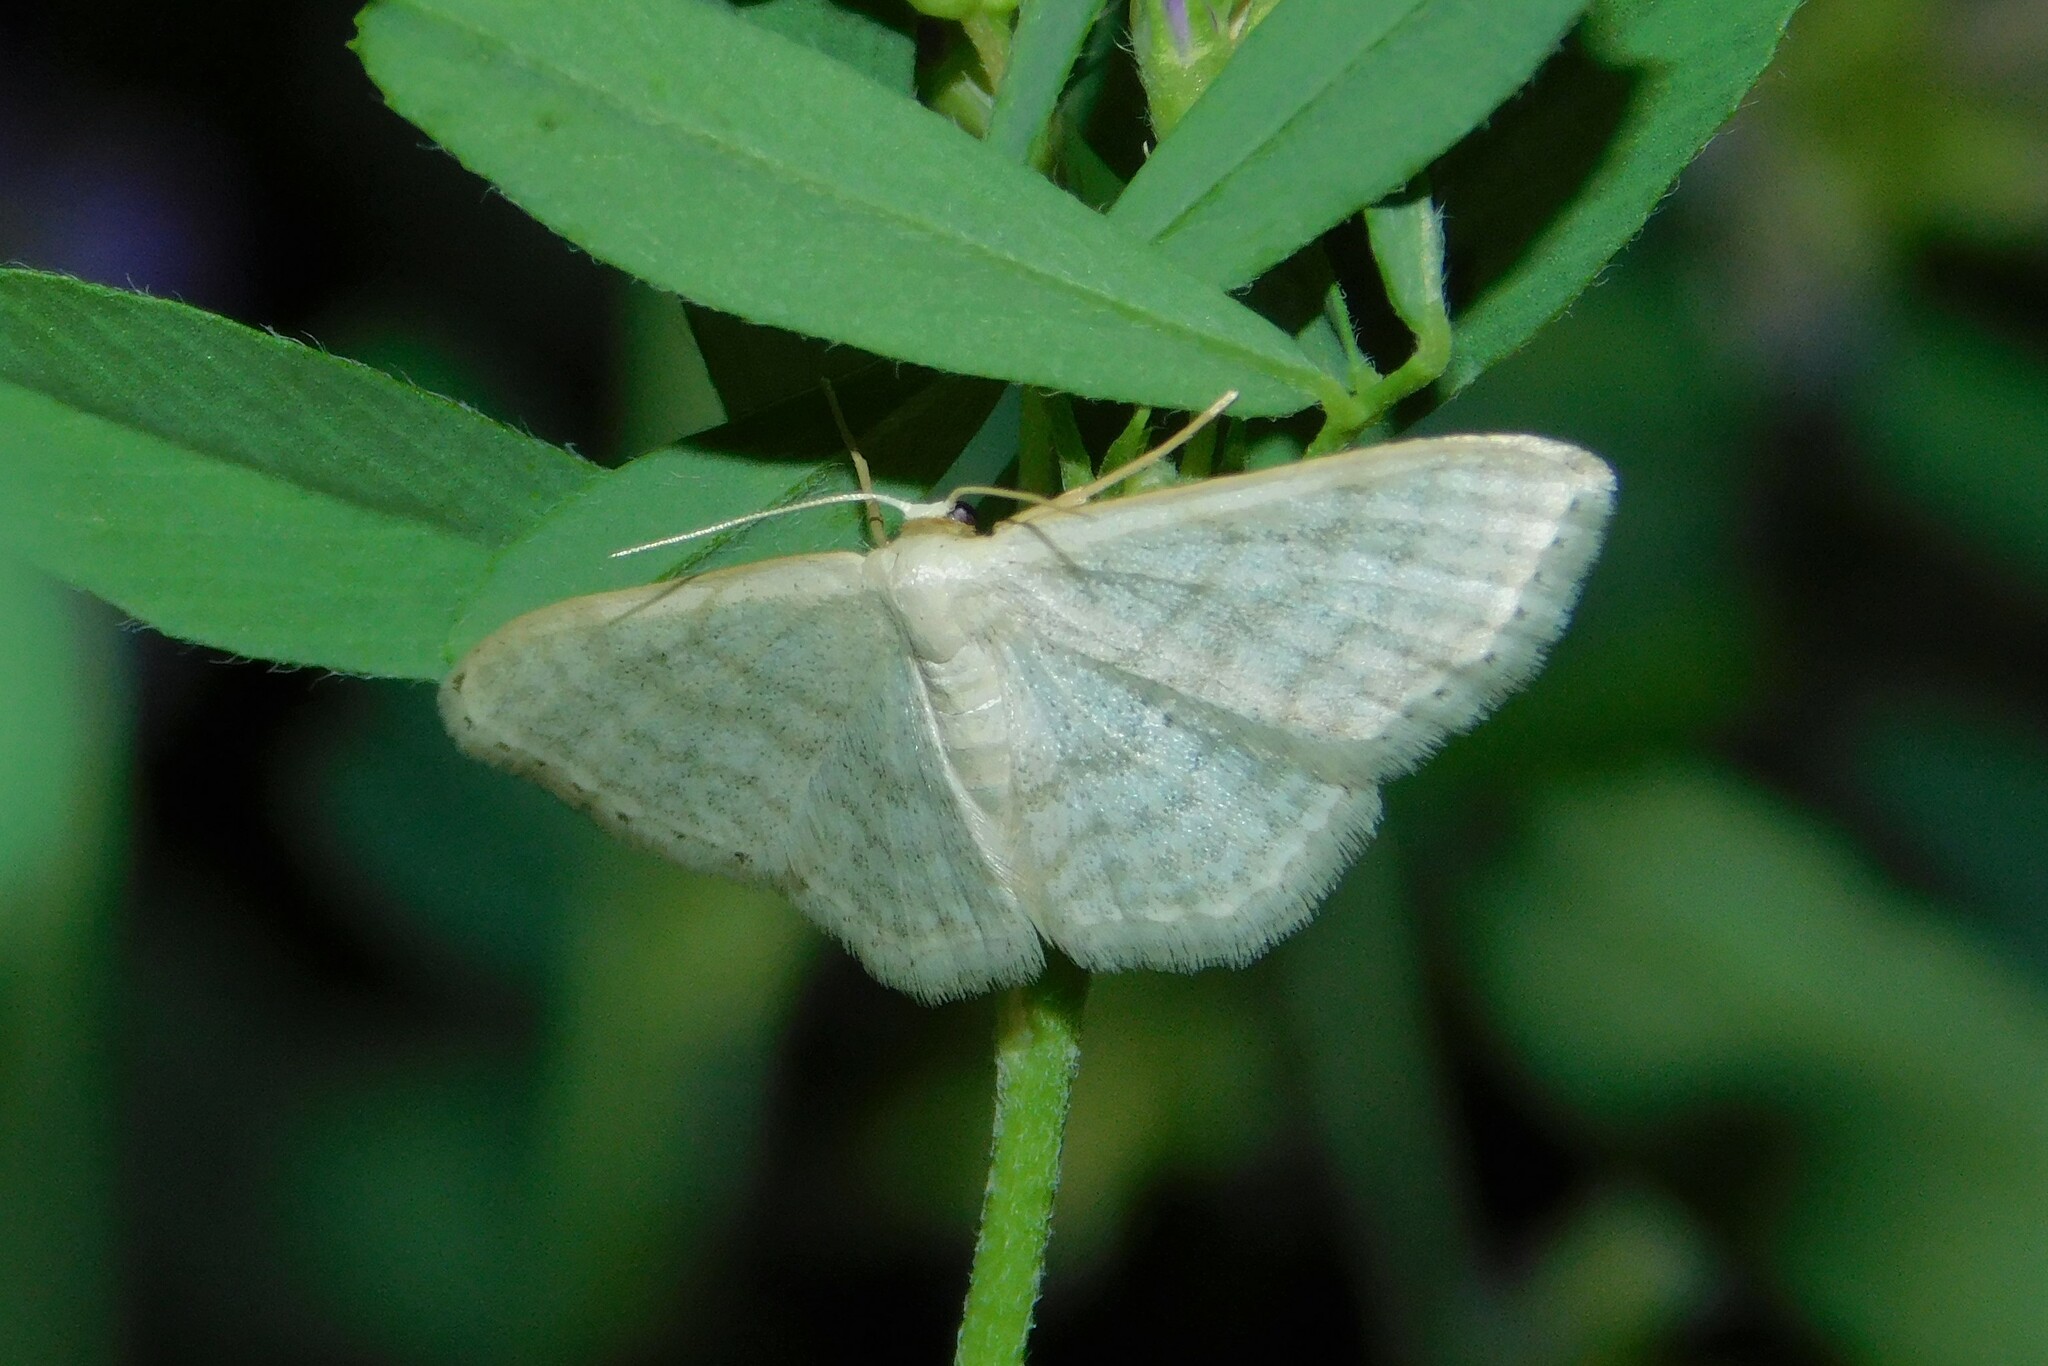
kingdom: Animalia
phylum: Arthropoda
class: Insecta
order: Lepidoptera
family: Geometridae
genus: Idaea
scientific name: Idaea subsericeata
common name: Satin wave
